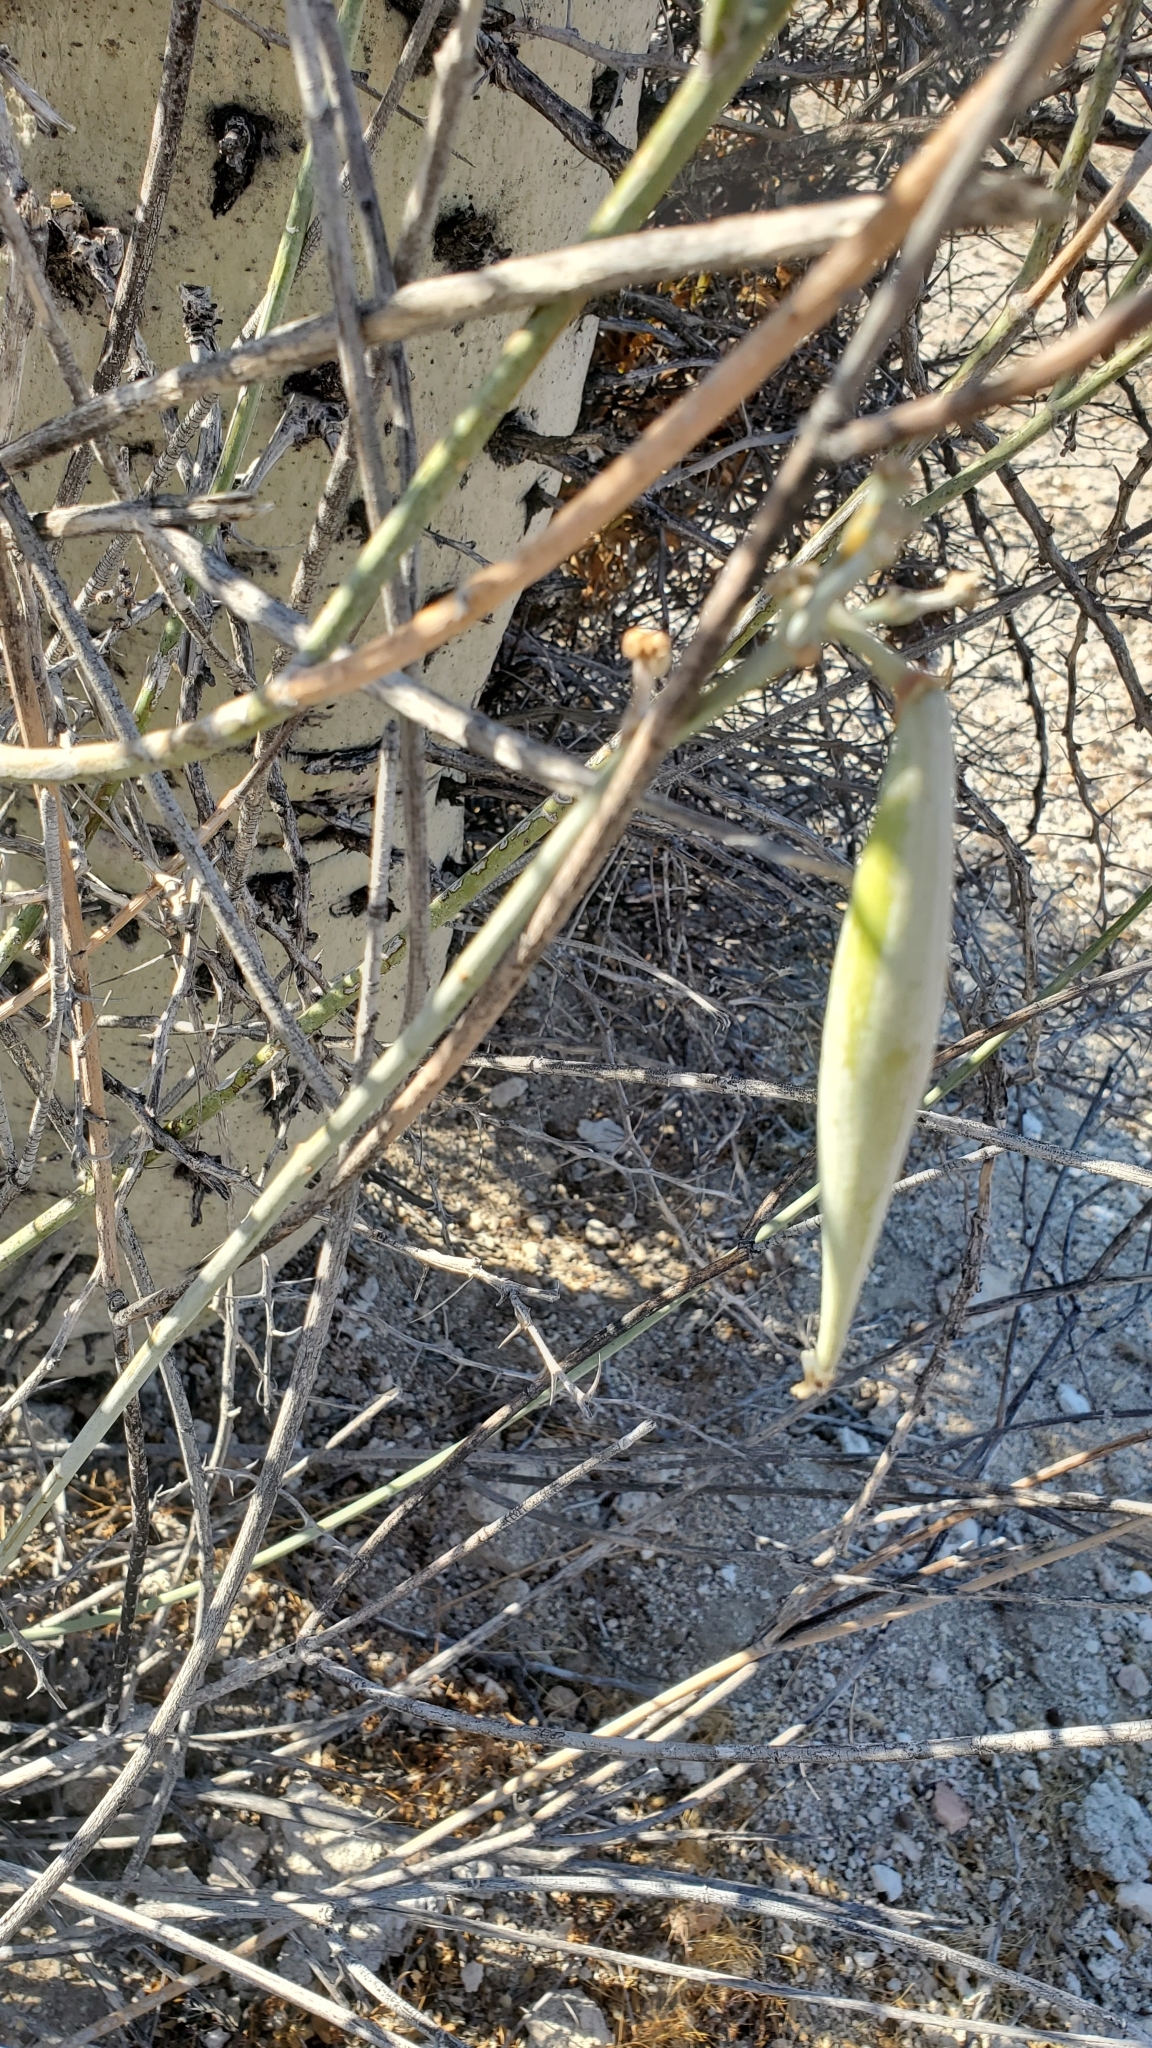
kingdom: Plantae
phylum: Tracheophyta
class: Magnoliopsida
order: Gentianales
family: Apocynaceae
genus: Asclepias
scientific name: Asclepias subulata
